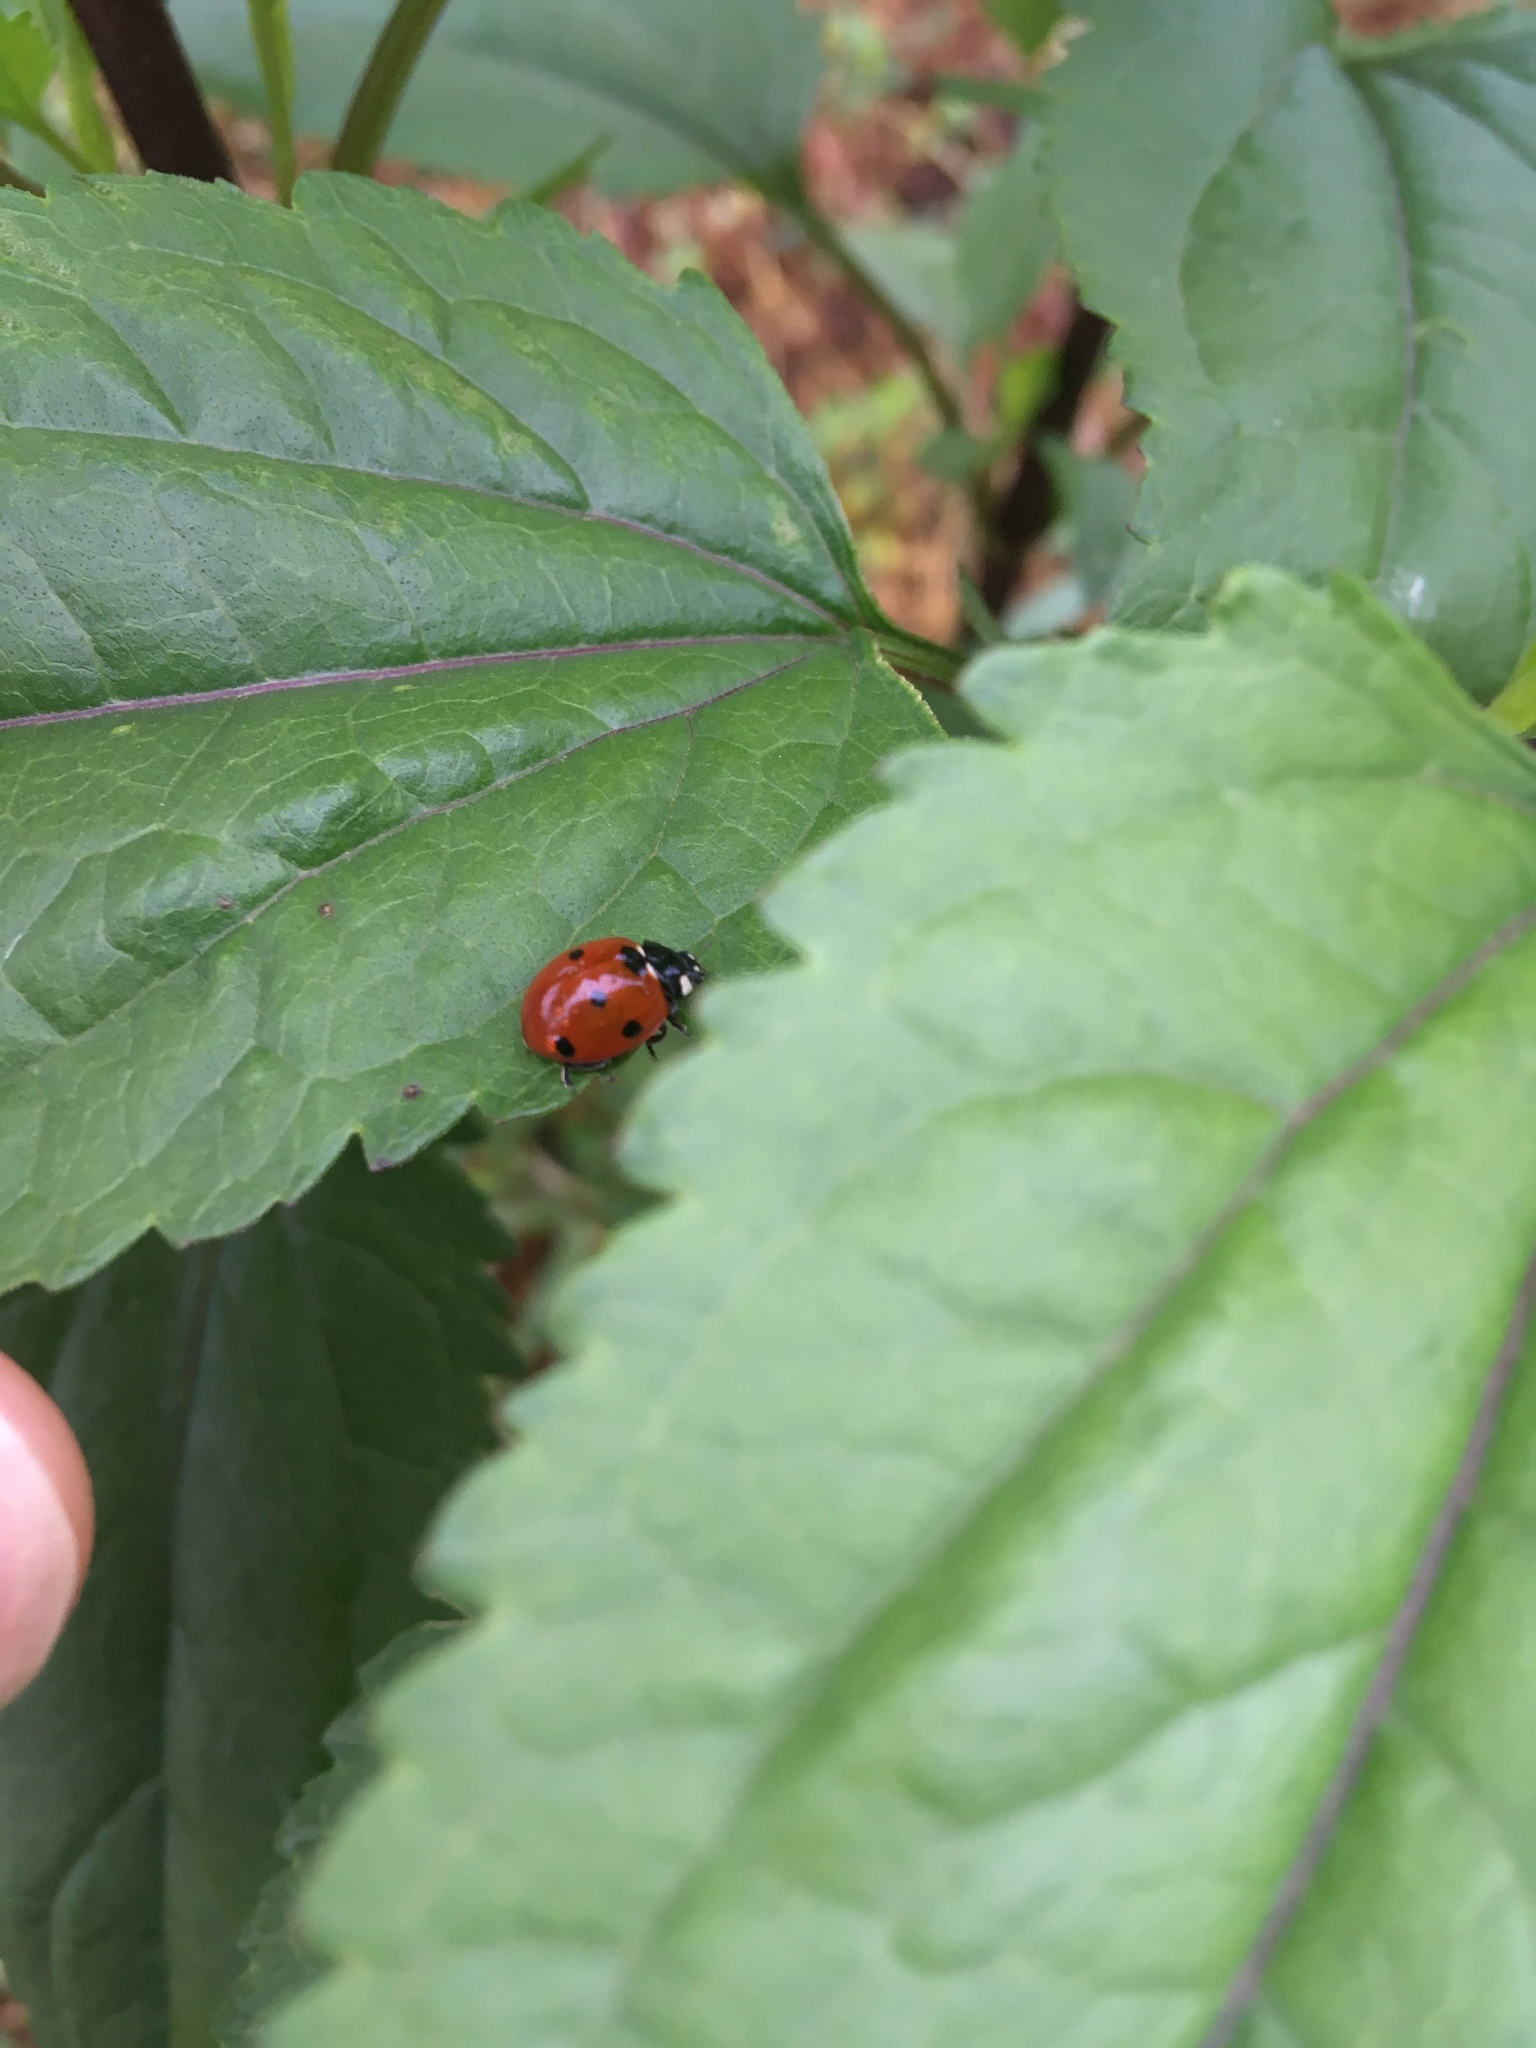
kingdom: Animalia
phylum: Arthropoda
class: Insecta
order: Coleoptera
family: Coccinellidae
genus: Coccinella
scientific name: Coccinella septempunctata
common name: Sevenspotted lady beetle
